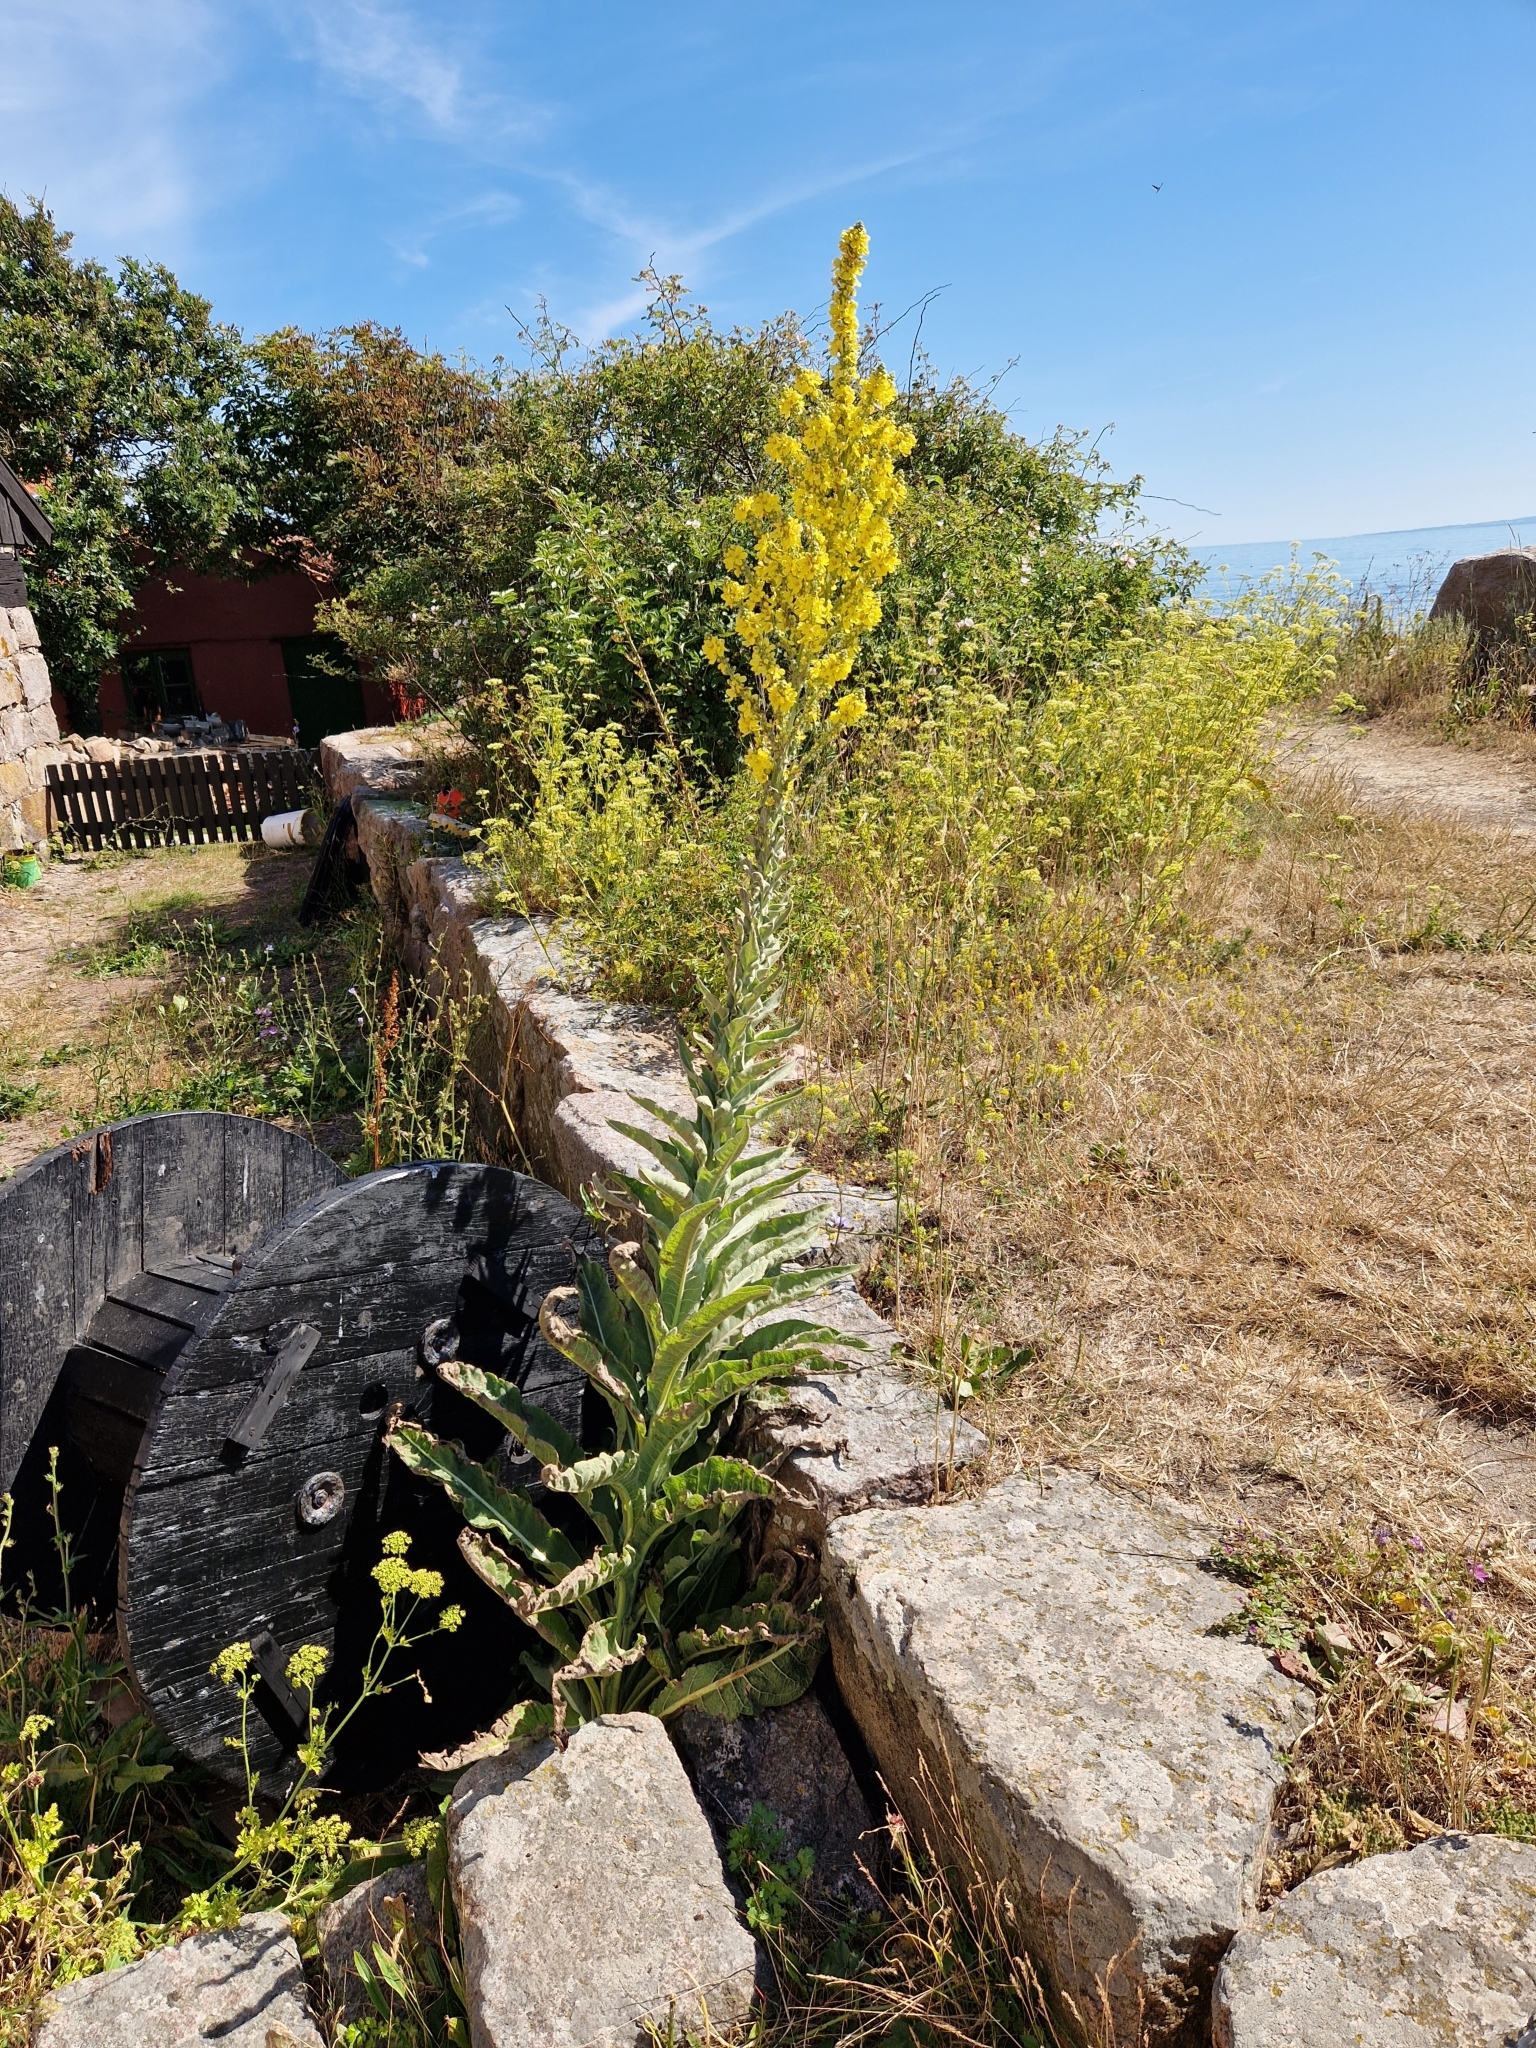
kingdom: Plantae
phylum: Tracheophyta
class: Magnoliopsida
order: Lamiales
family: Scrophulariaceae
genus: Verbascum
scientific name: Verbascum speciosum
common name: Hungarian mullein
